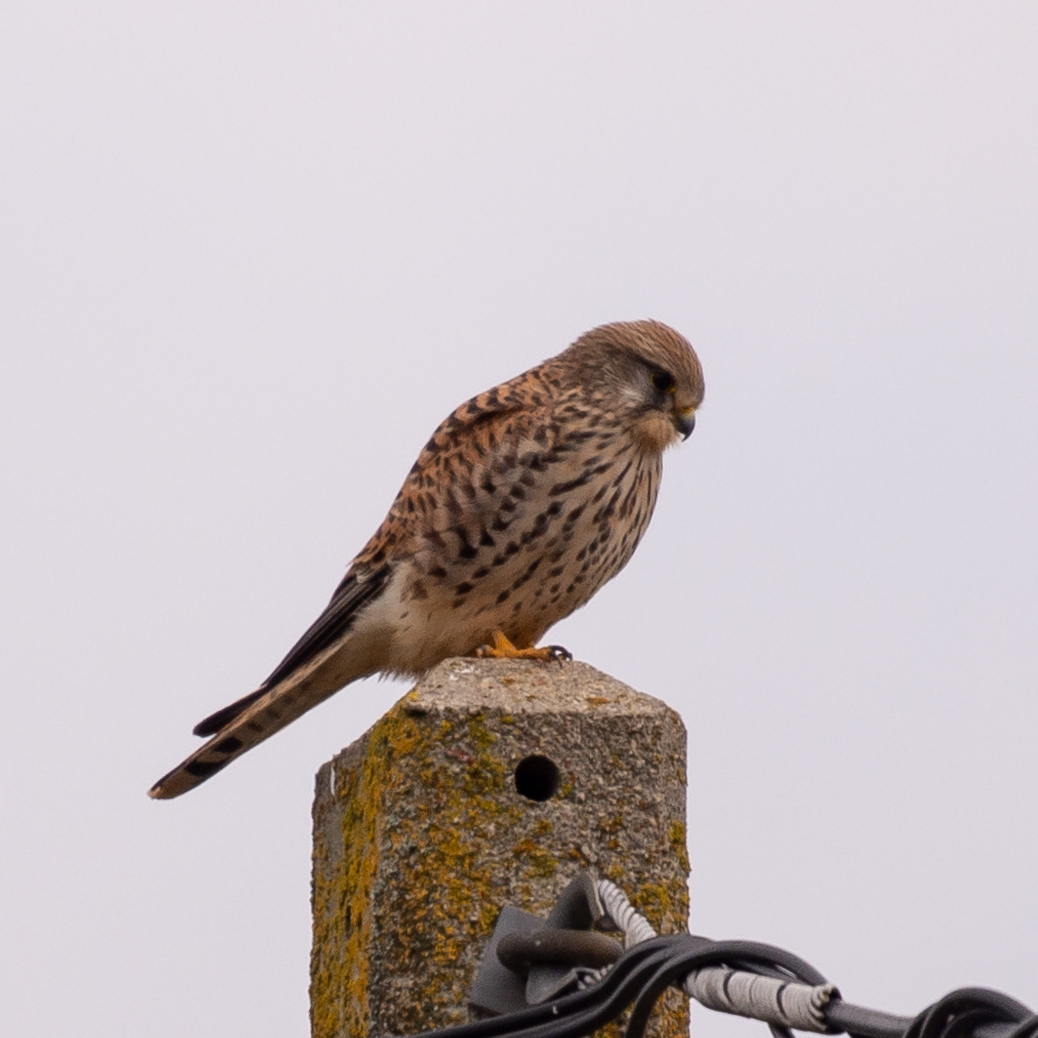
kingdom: Animalia
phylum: Chordata
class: Aves
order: Falconiformes
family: Falconidae
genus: Falco
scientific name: Falco tinnunculus
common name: Common kestrel
